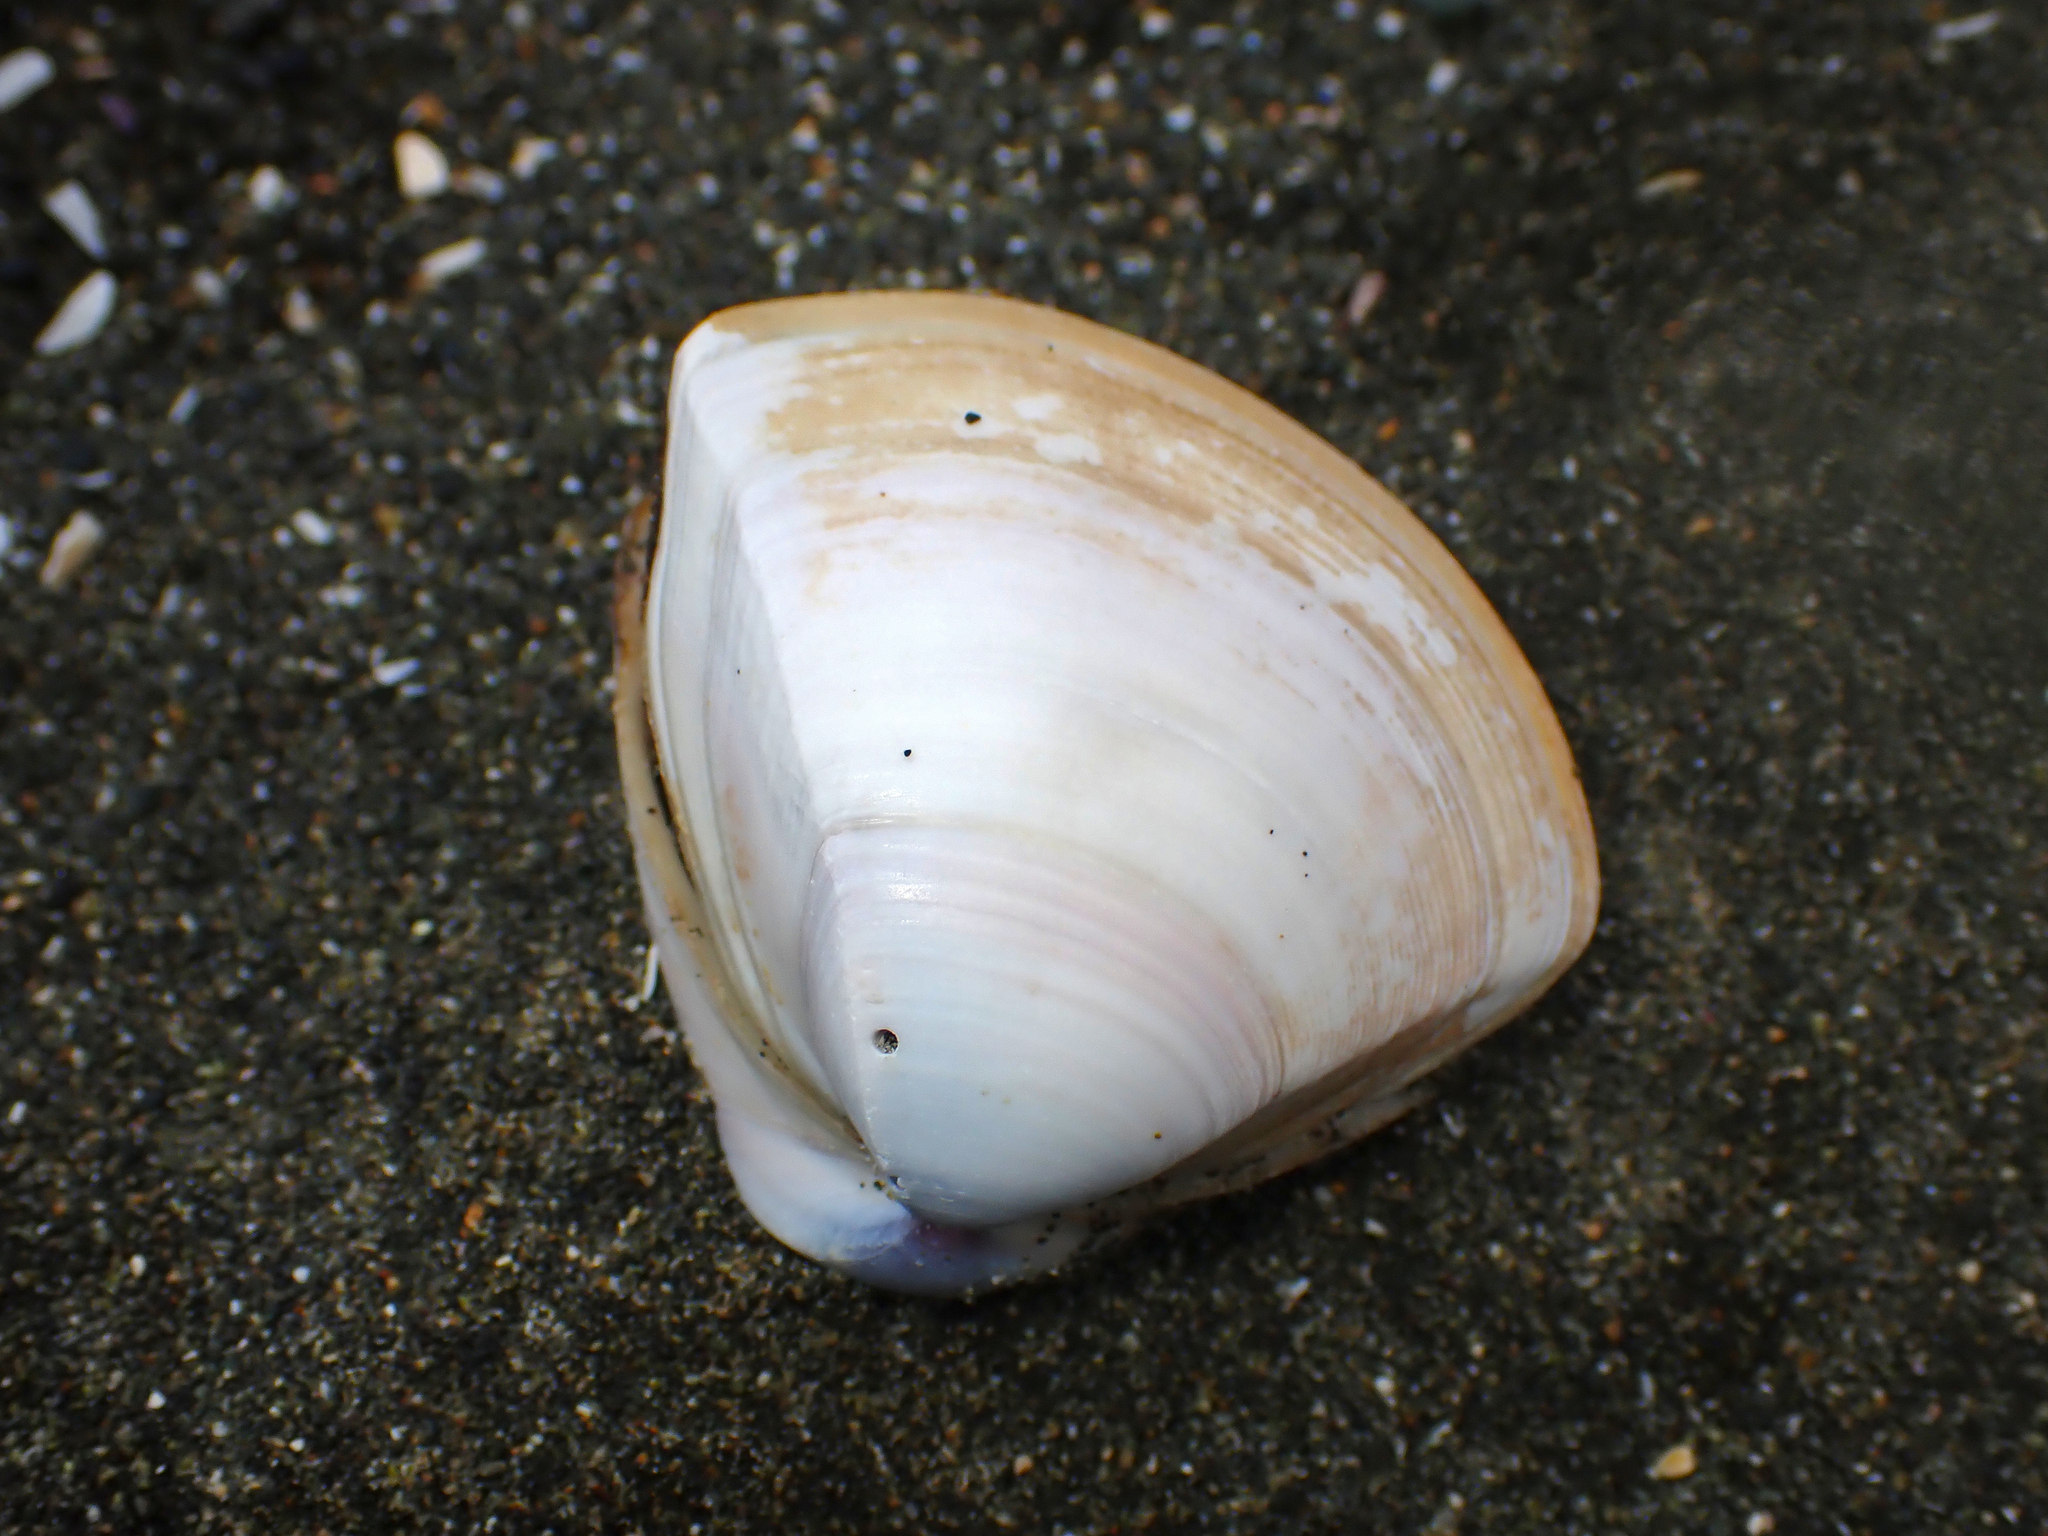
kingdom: Animalia
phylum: Mollusca
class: Bivalvia
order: Venerida
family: Mactridae
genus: Crassula
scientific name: Crassula aequilatera
